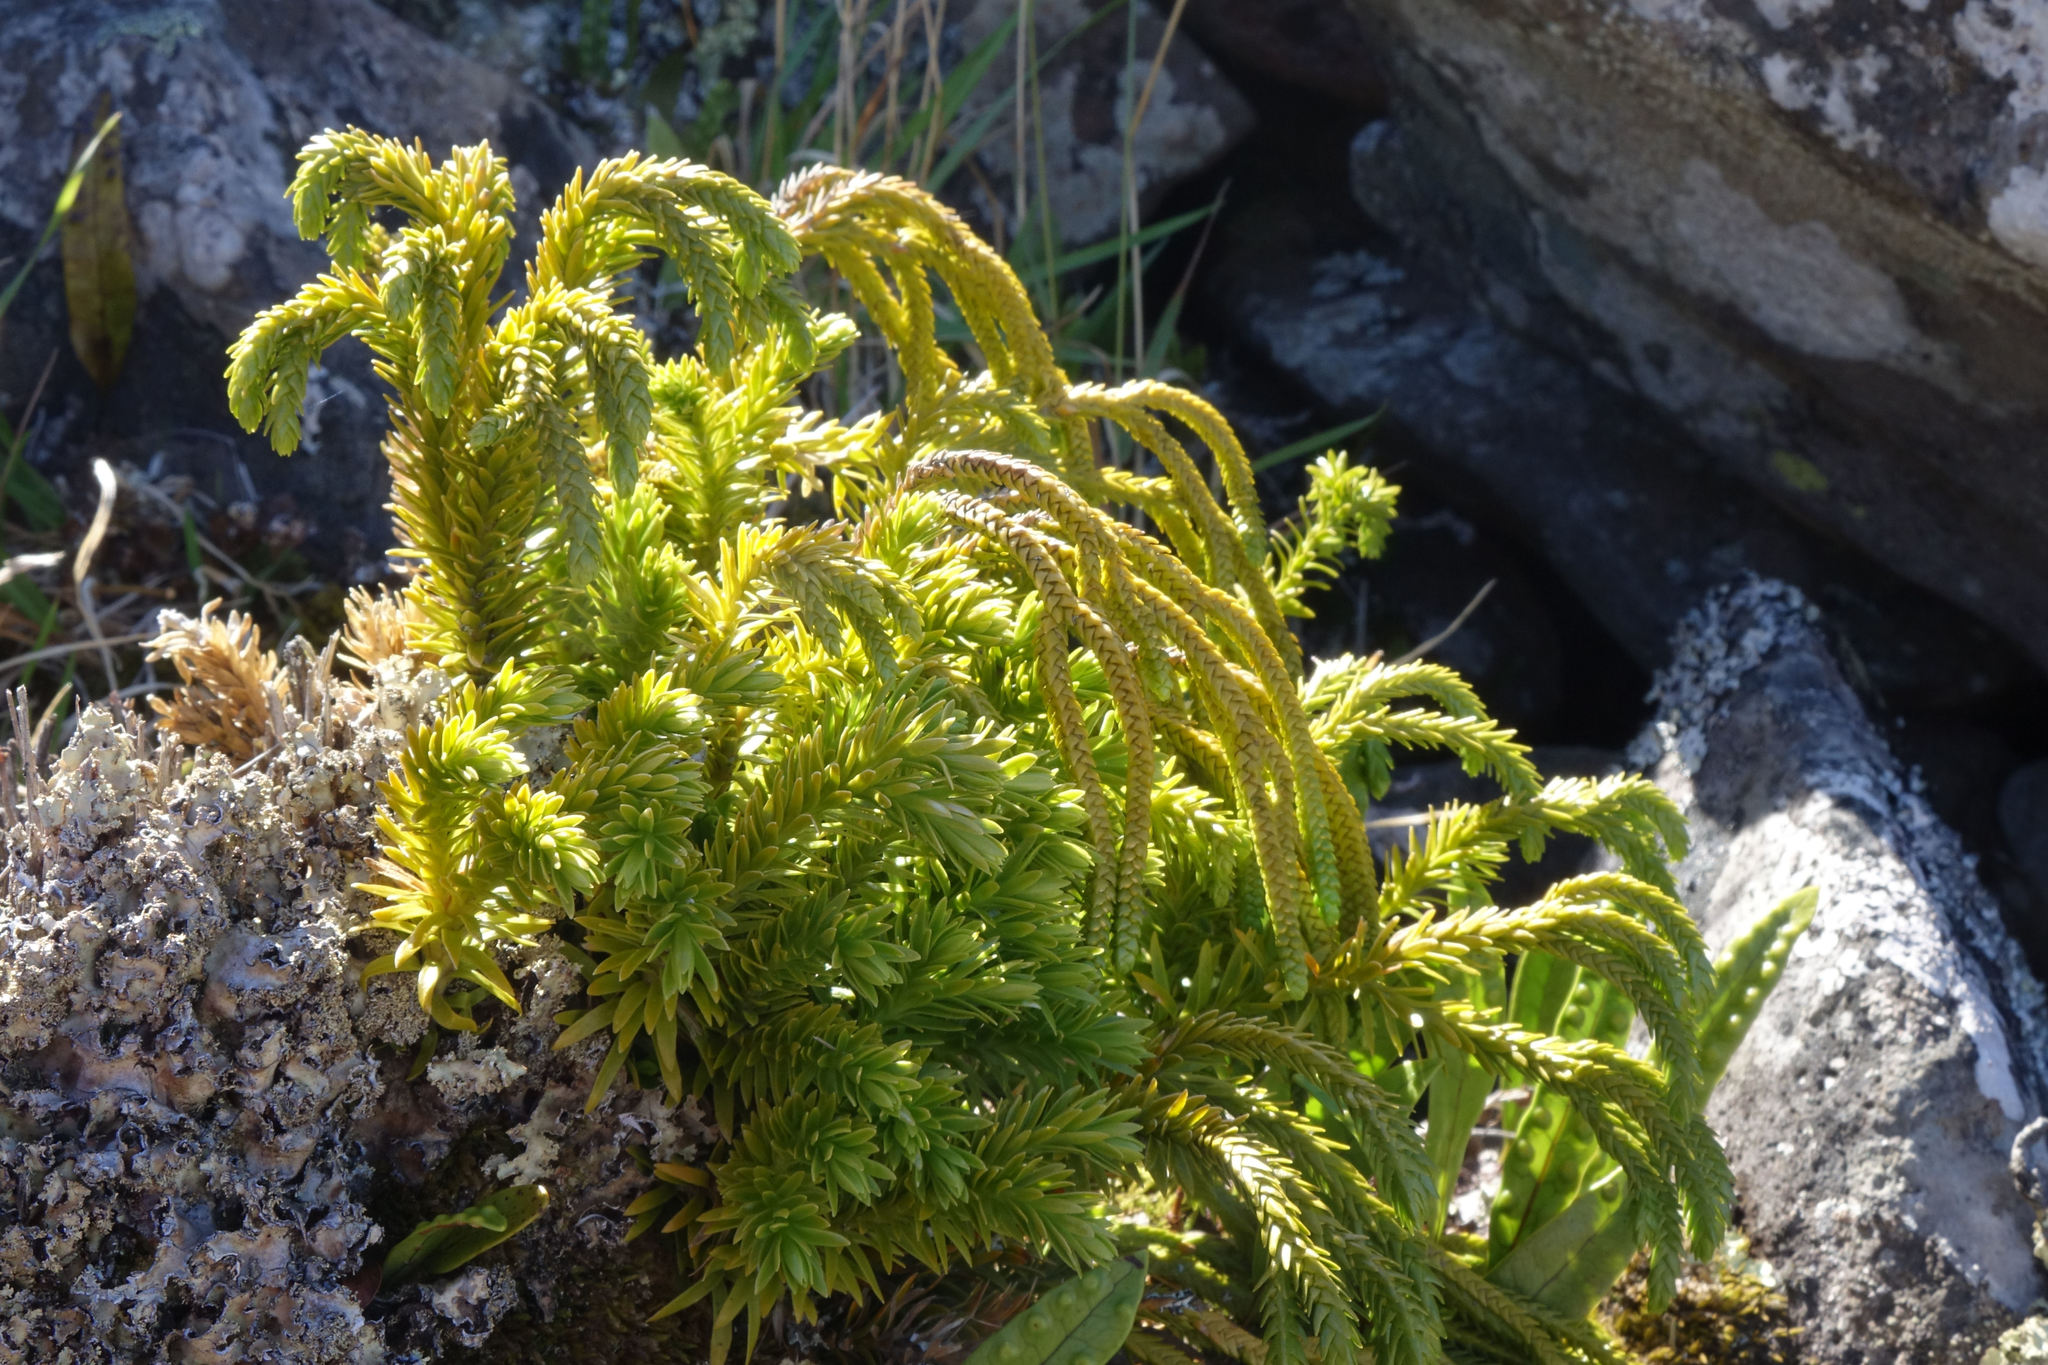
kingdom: Plantae
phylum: Tracheophyta
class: Lycopodiopsida
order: Lycopodiales
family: Lycopodiaceae
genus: Phlegmariurus
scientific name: Phlegmariurus varius
